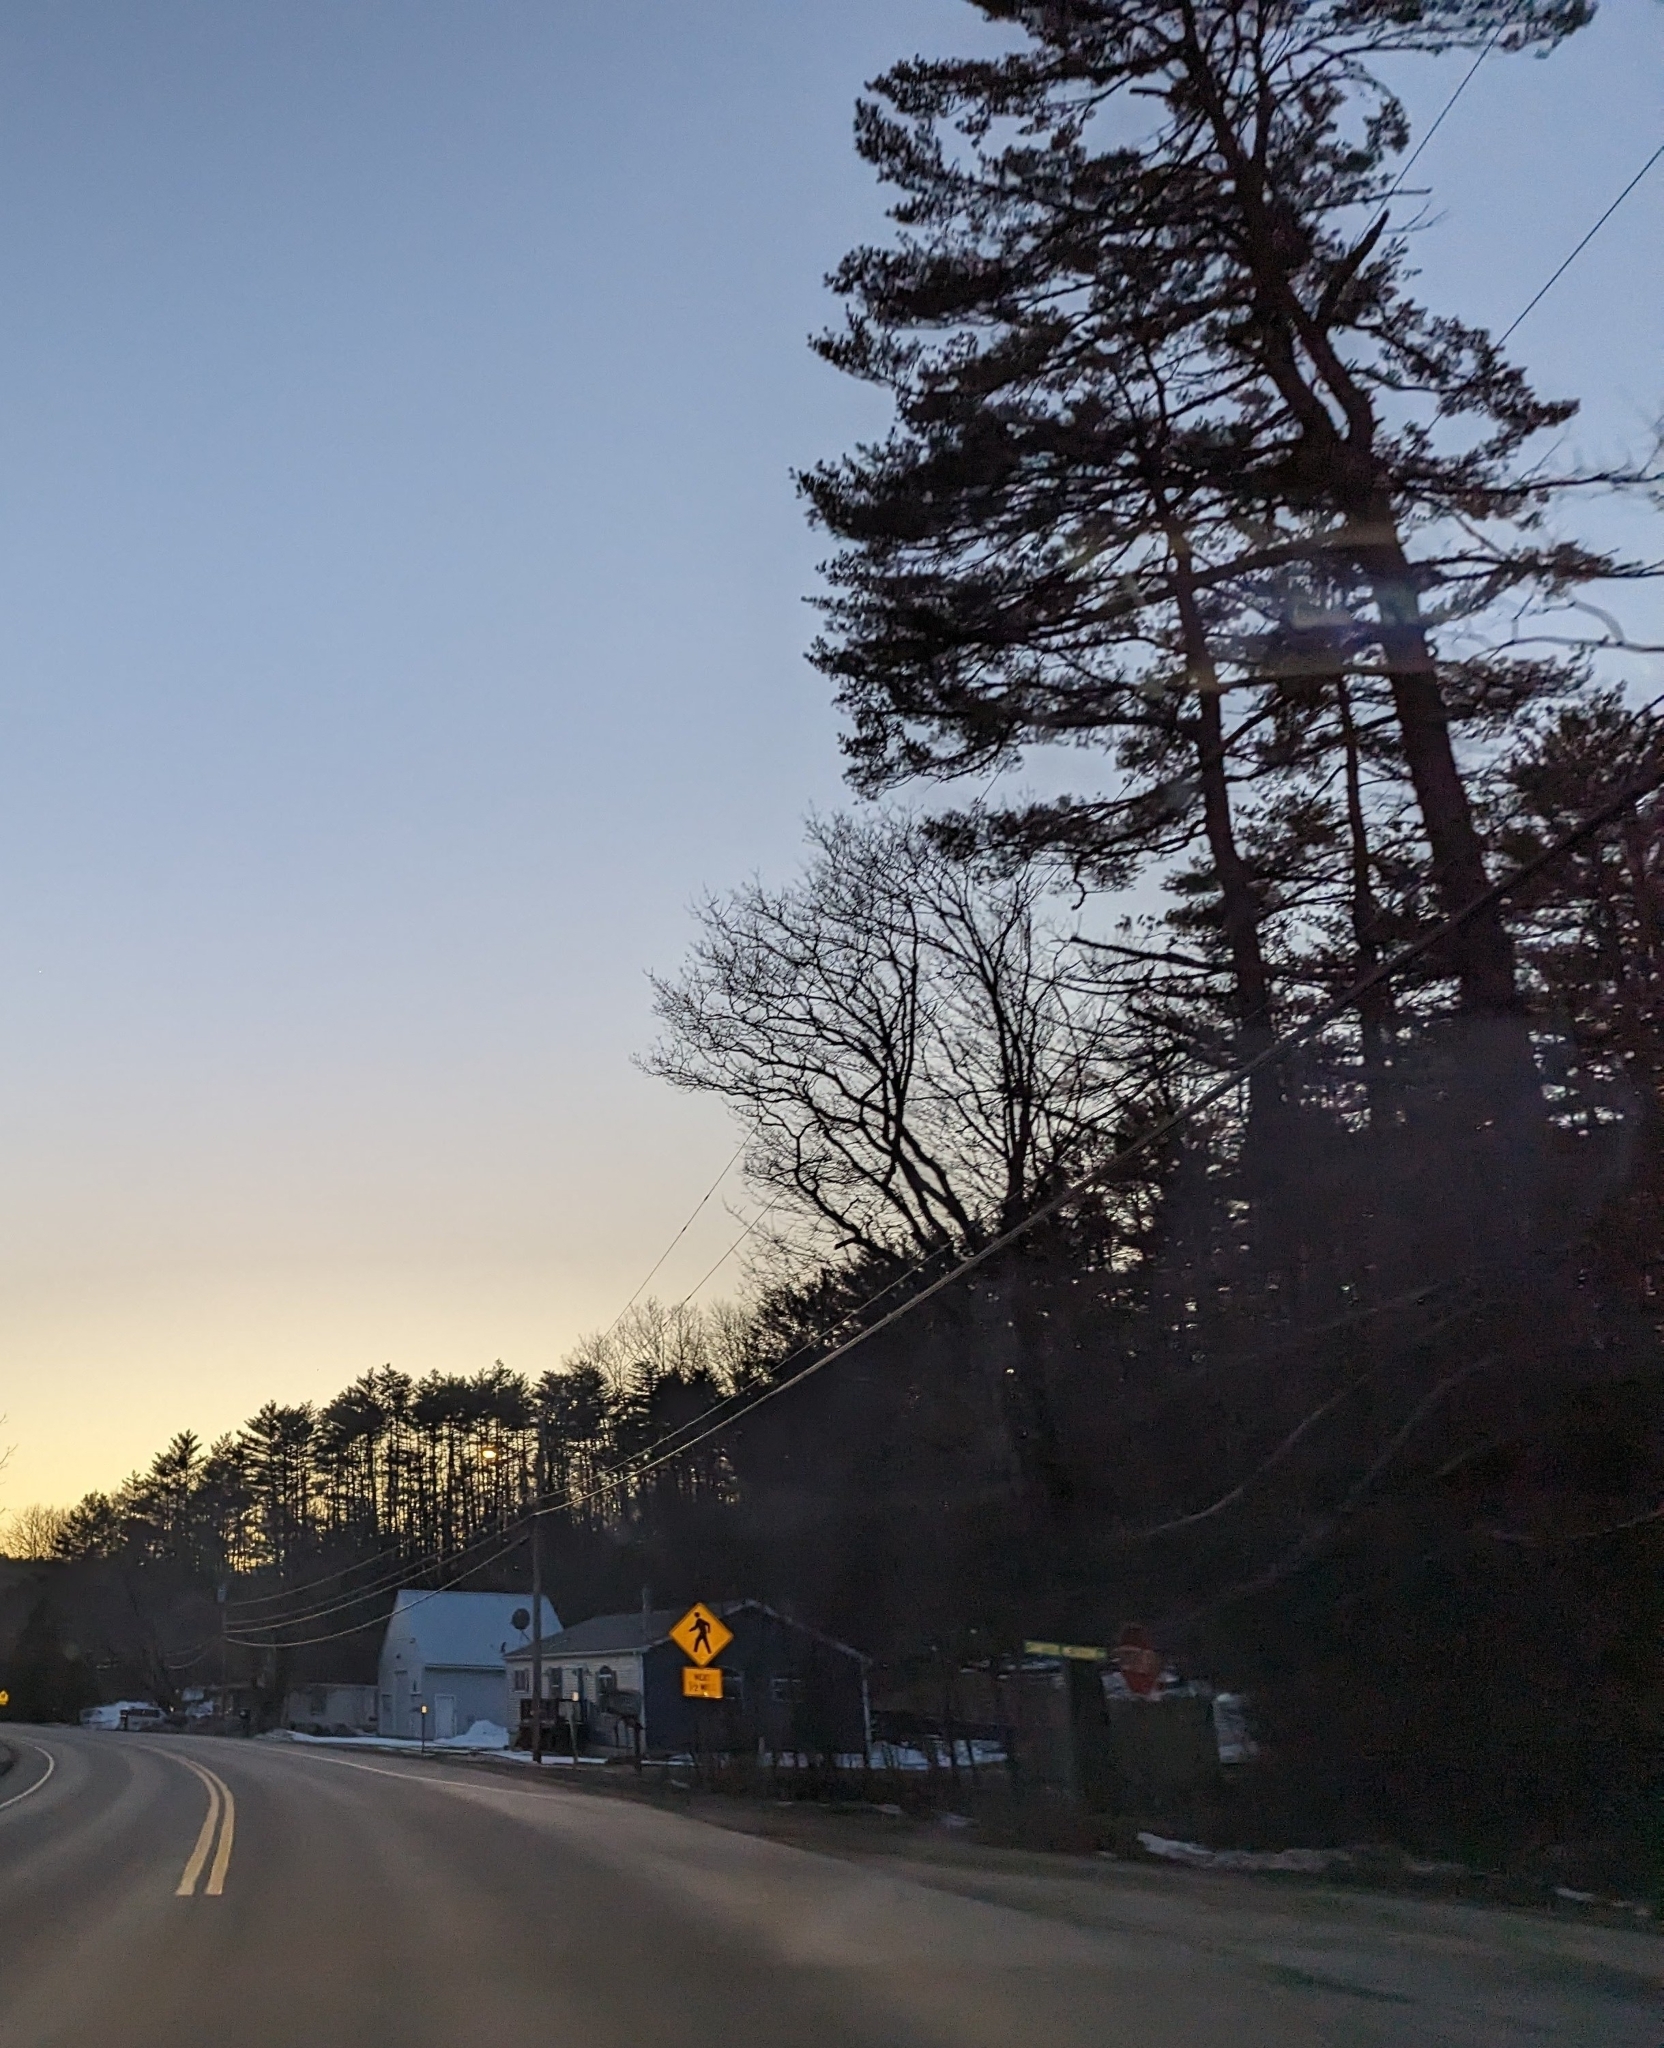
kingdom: Plantae
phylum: Tracheophyta
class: Pinopsida
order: Pinales
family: Pinaceae
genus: Pinus
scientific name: Pinus strobus
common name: Weymouth pine
